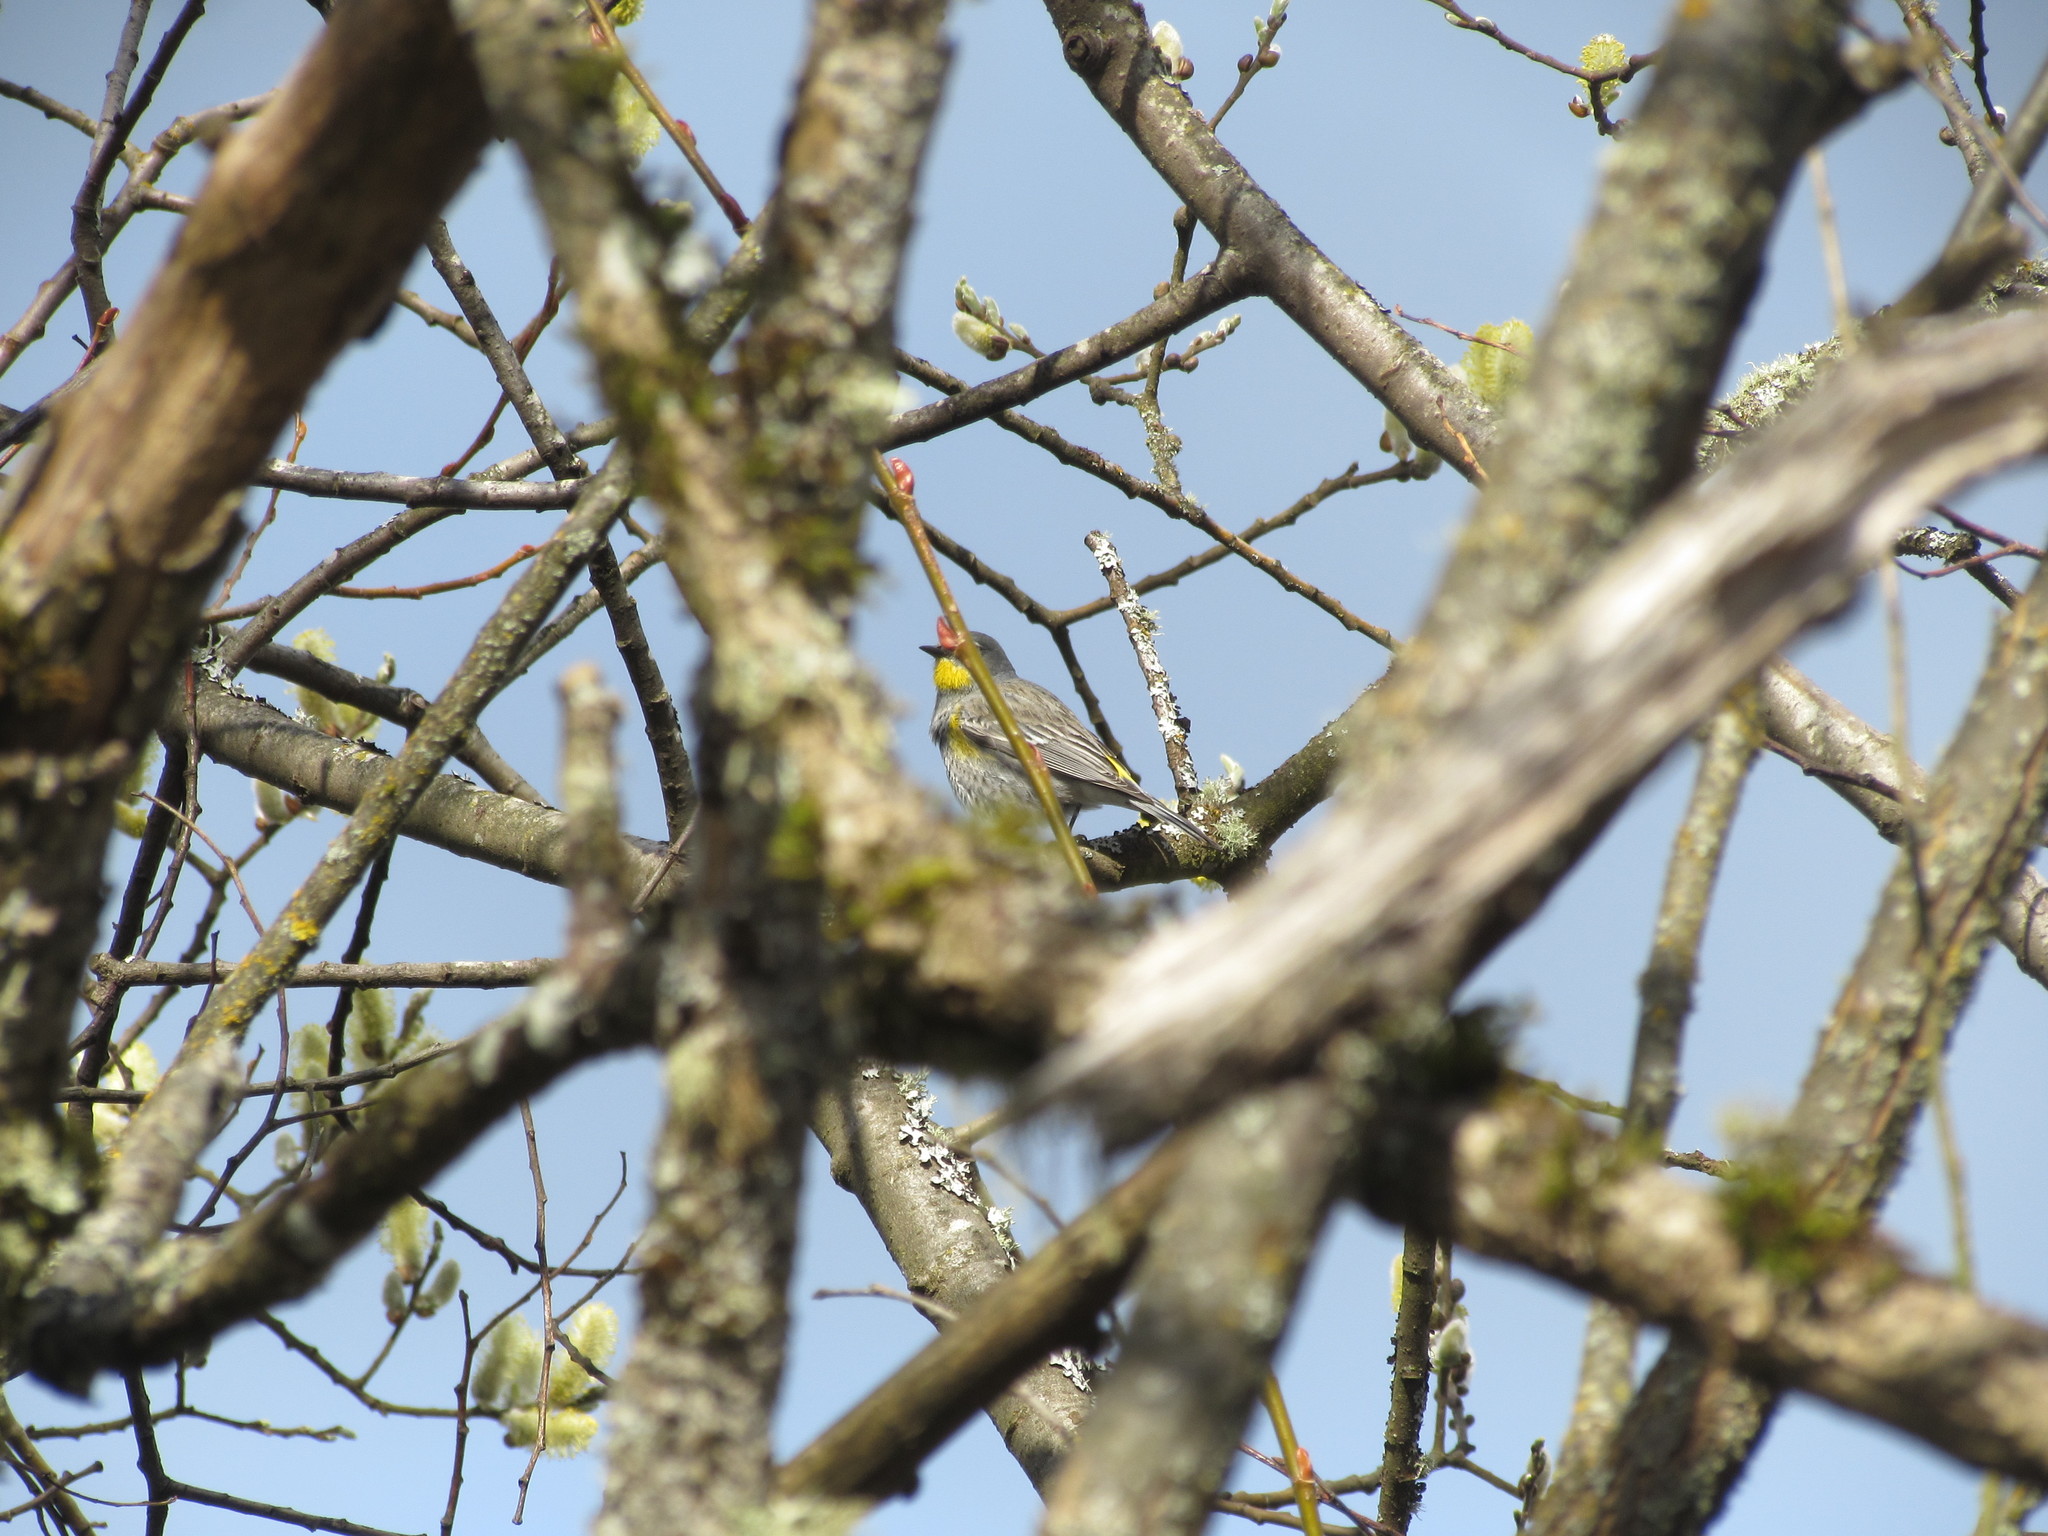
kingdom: Animalia
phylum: Chordata
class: Aves
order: Passeriformes
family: Parulidae
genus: Setophaga
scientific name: Setophaga auduboni
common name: Audubon's warbler
